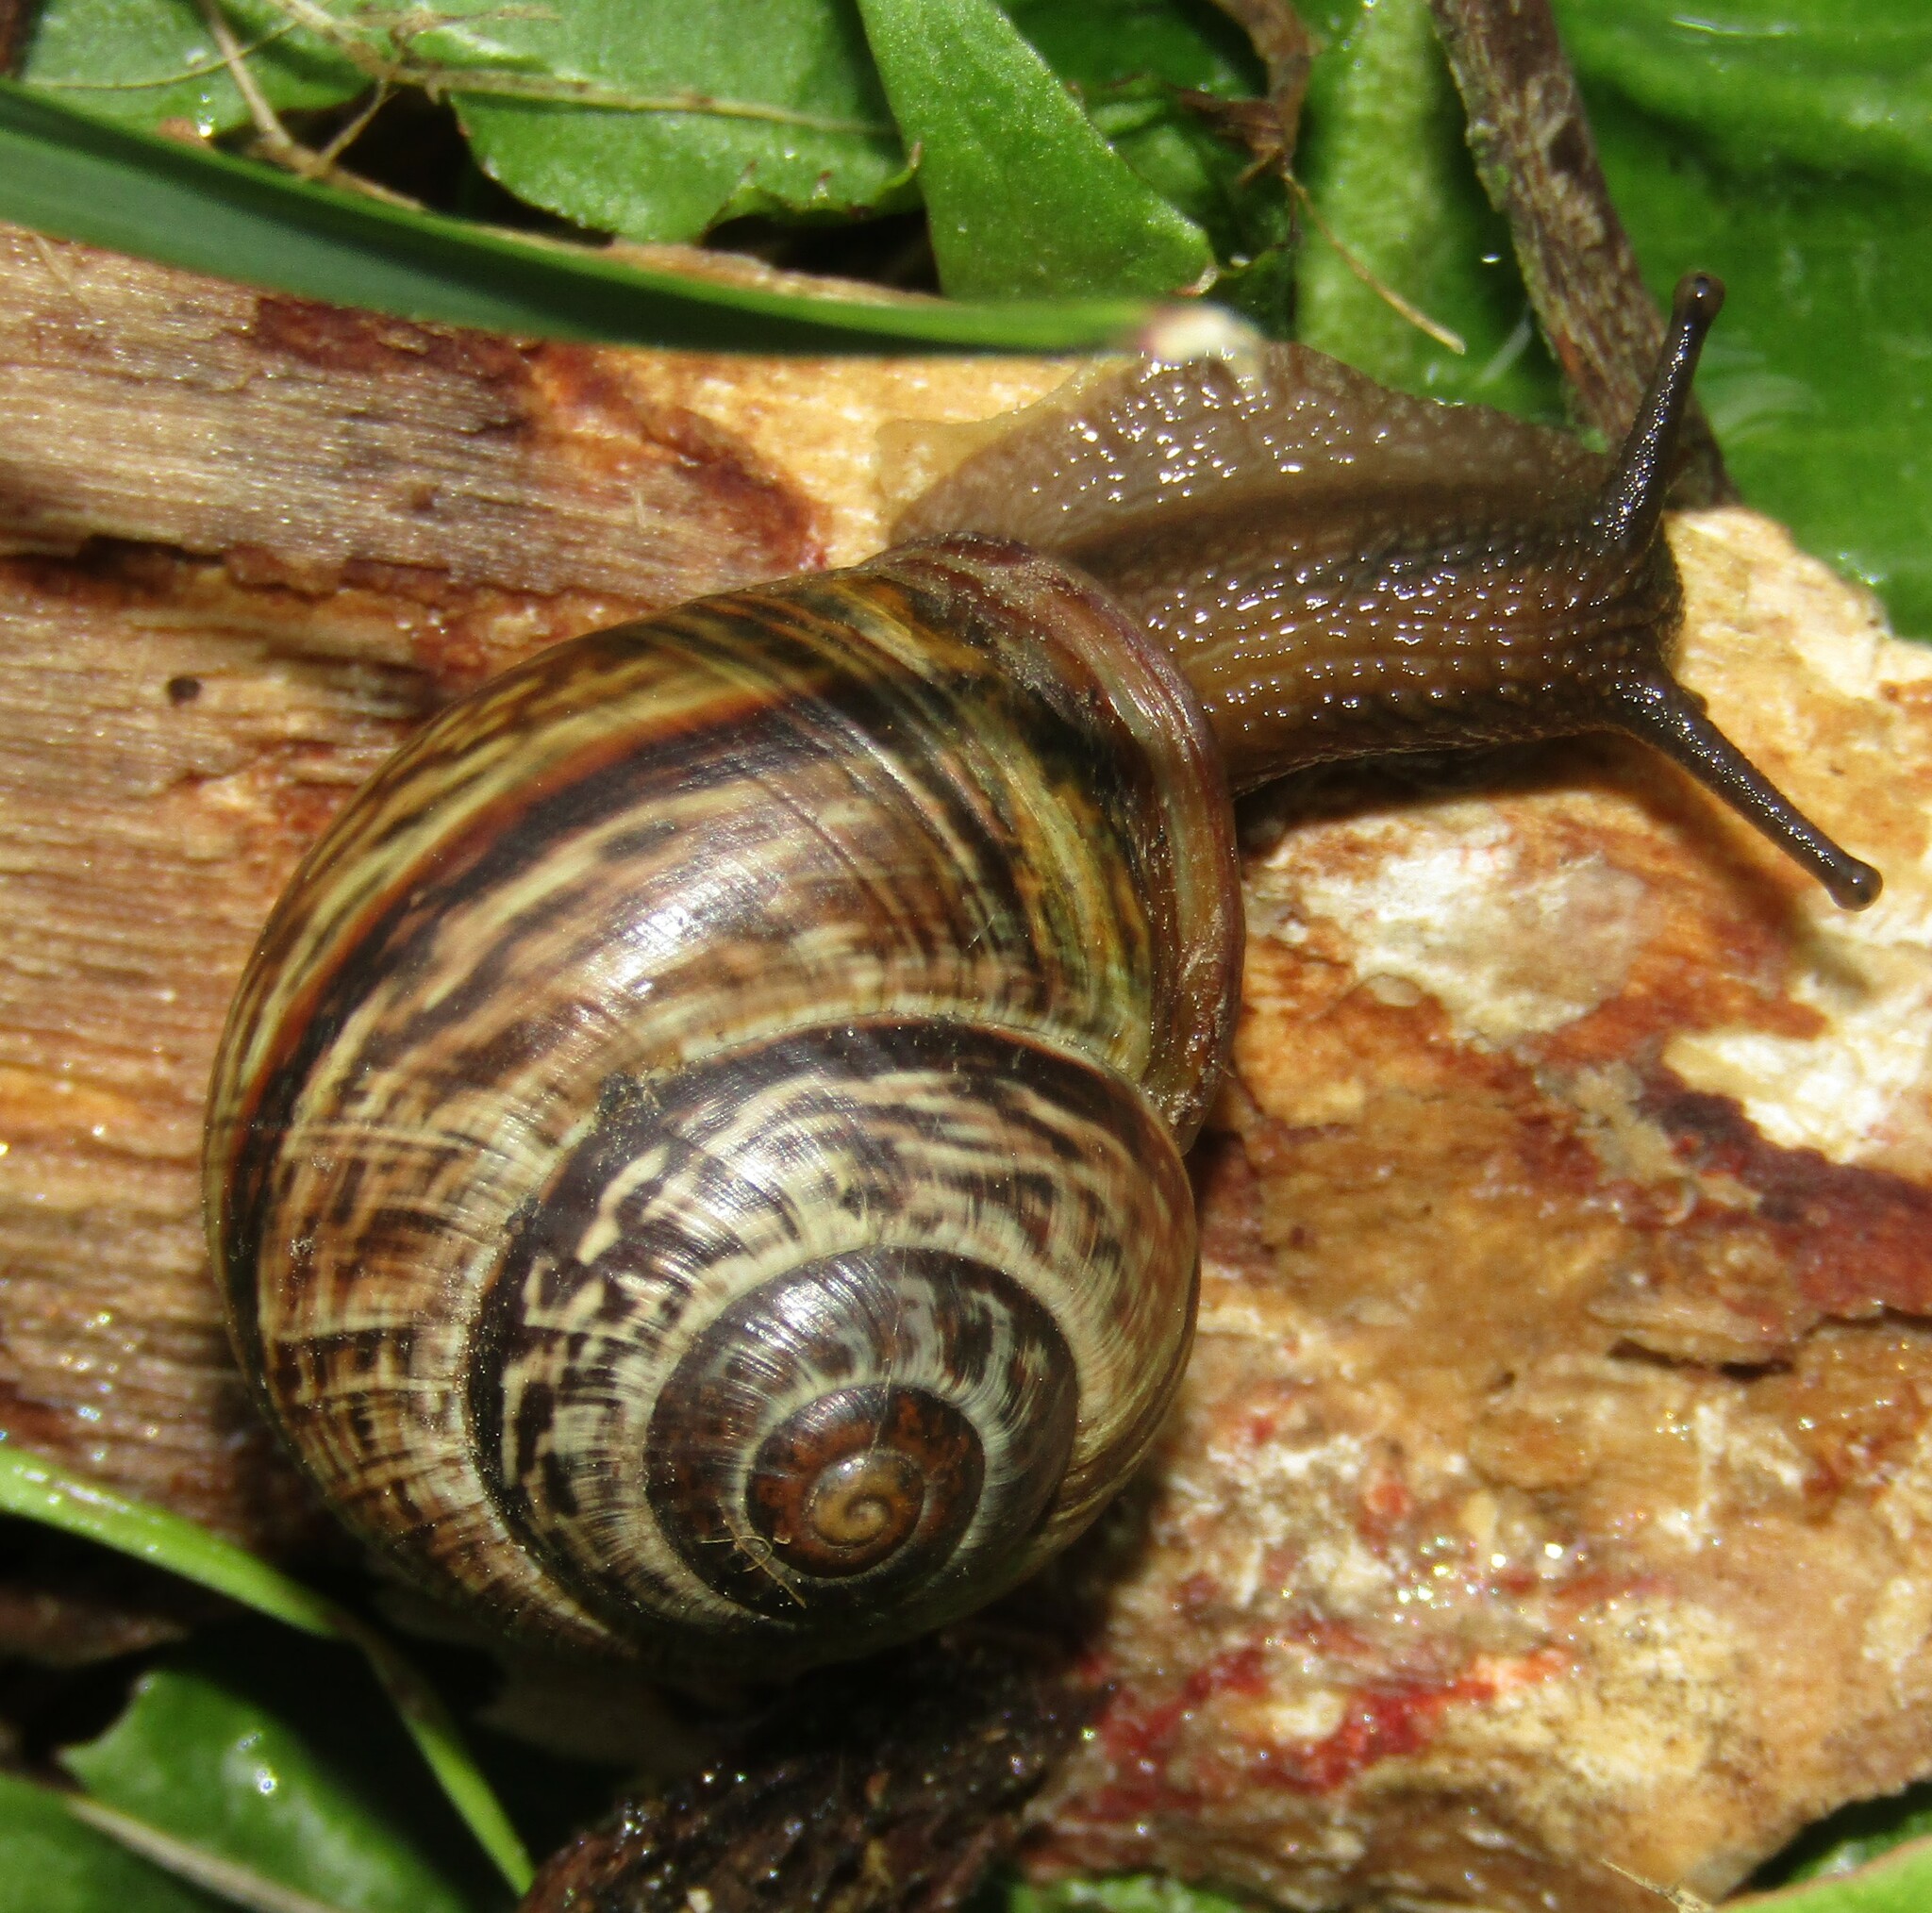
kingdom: Animalia
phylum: Mollusca
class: Gastropoda
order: Stylommatophora
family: Helicidae
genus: Arianta
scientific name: Arianta arbustorum
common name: Copse snail
